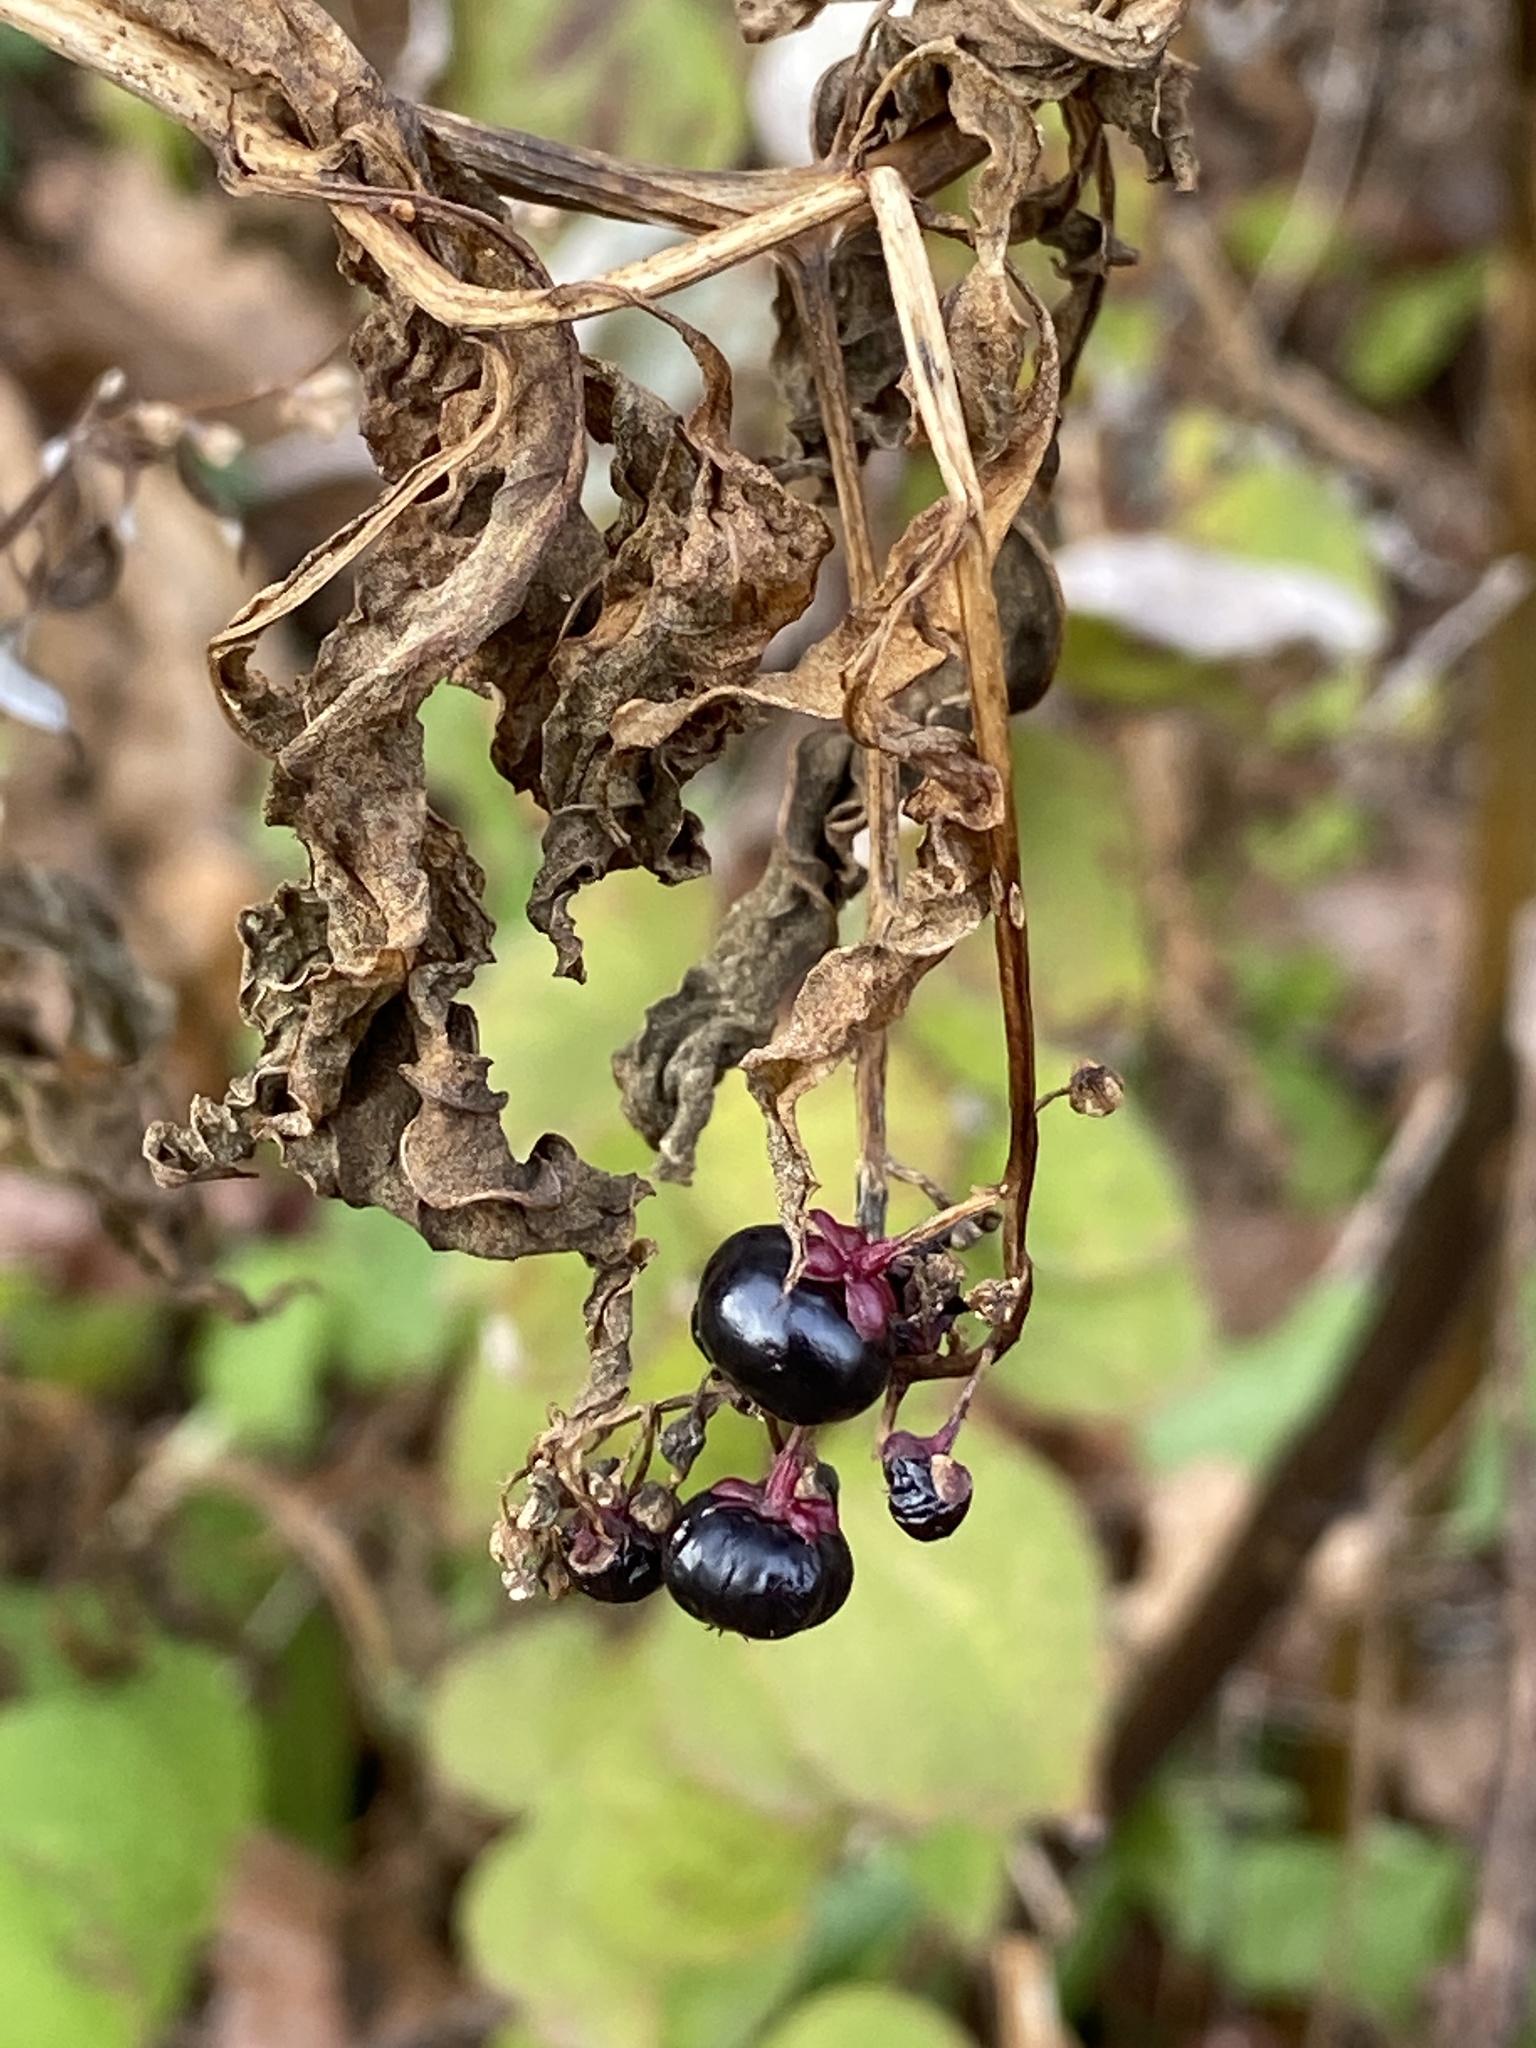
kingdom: Plantae
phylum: Tracheophyta
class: Magnoliopsida
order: Caryophyllales
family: Phytolaccaceae
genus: Phytolacca
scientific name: Phytolacca americana
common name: American pokeweed
